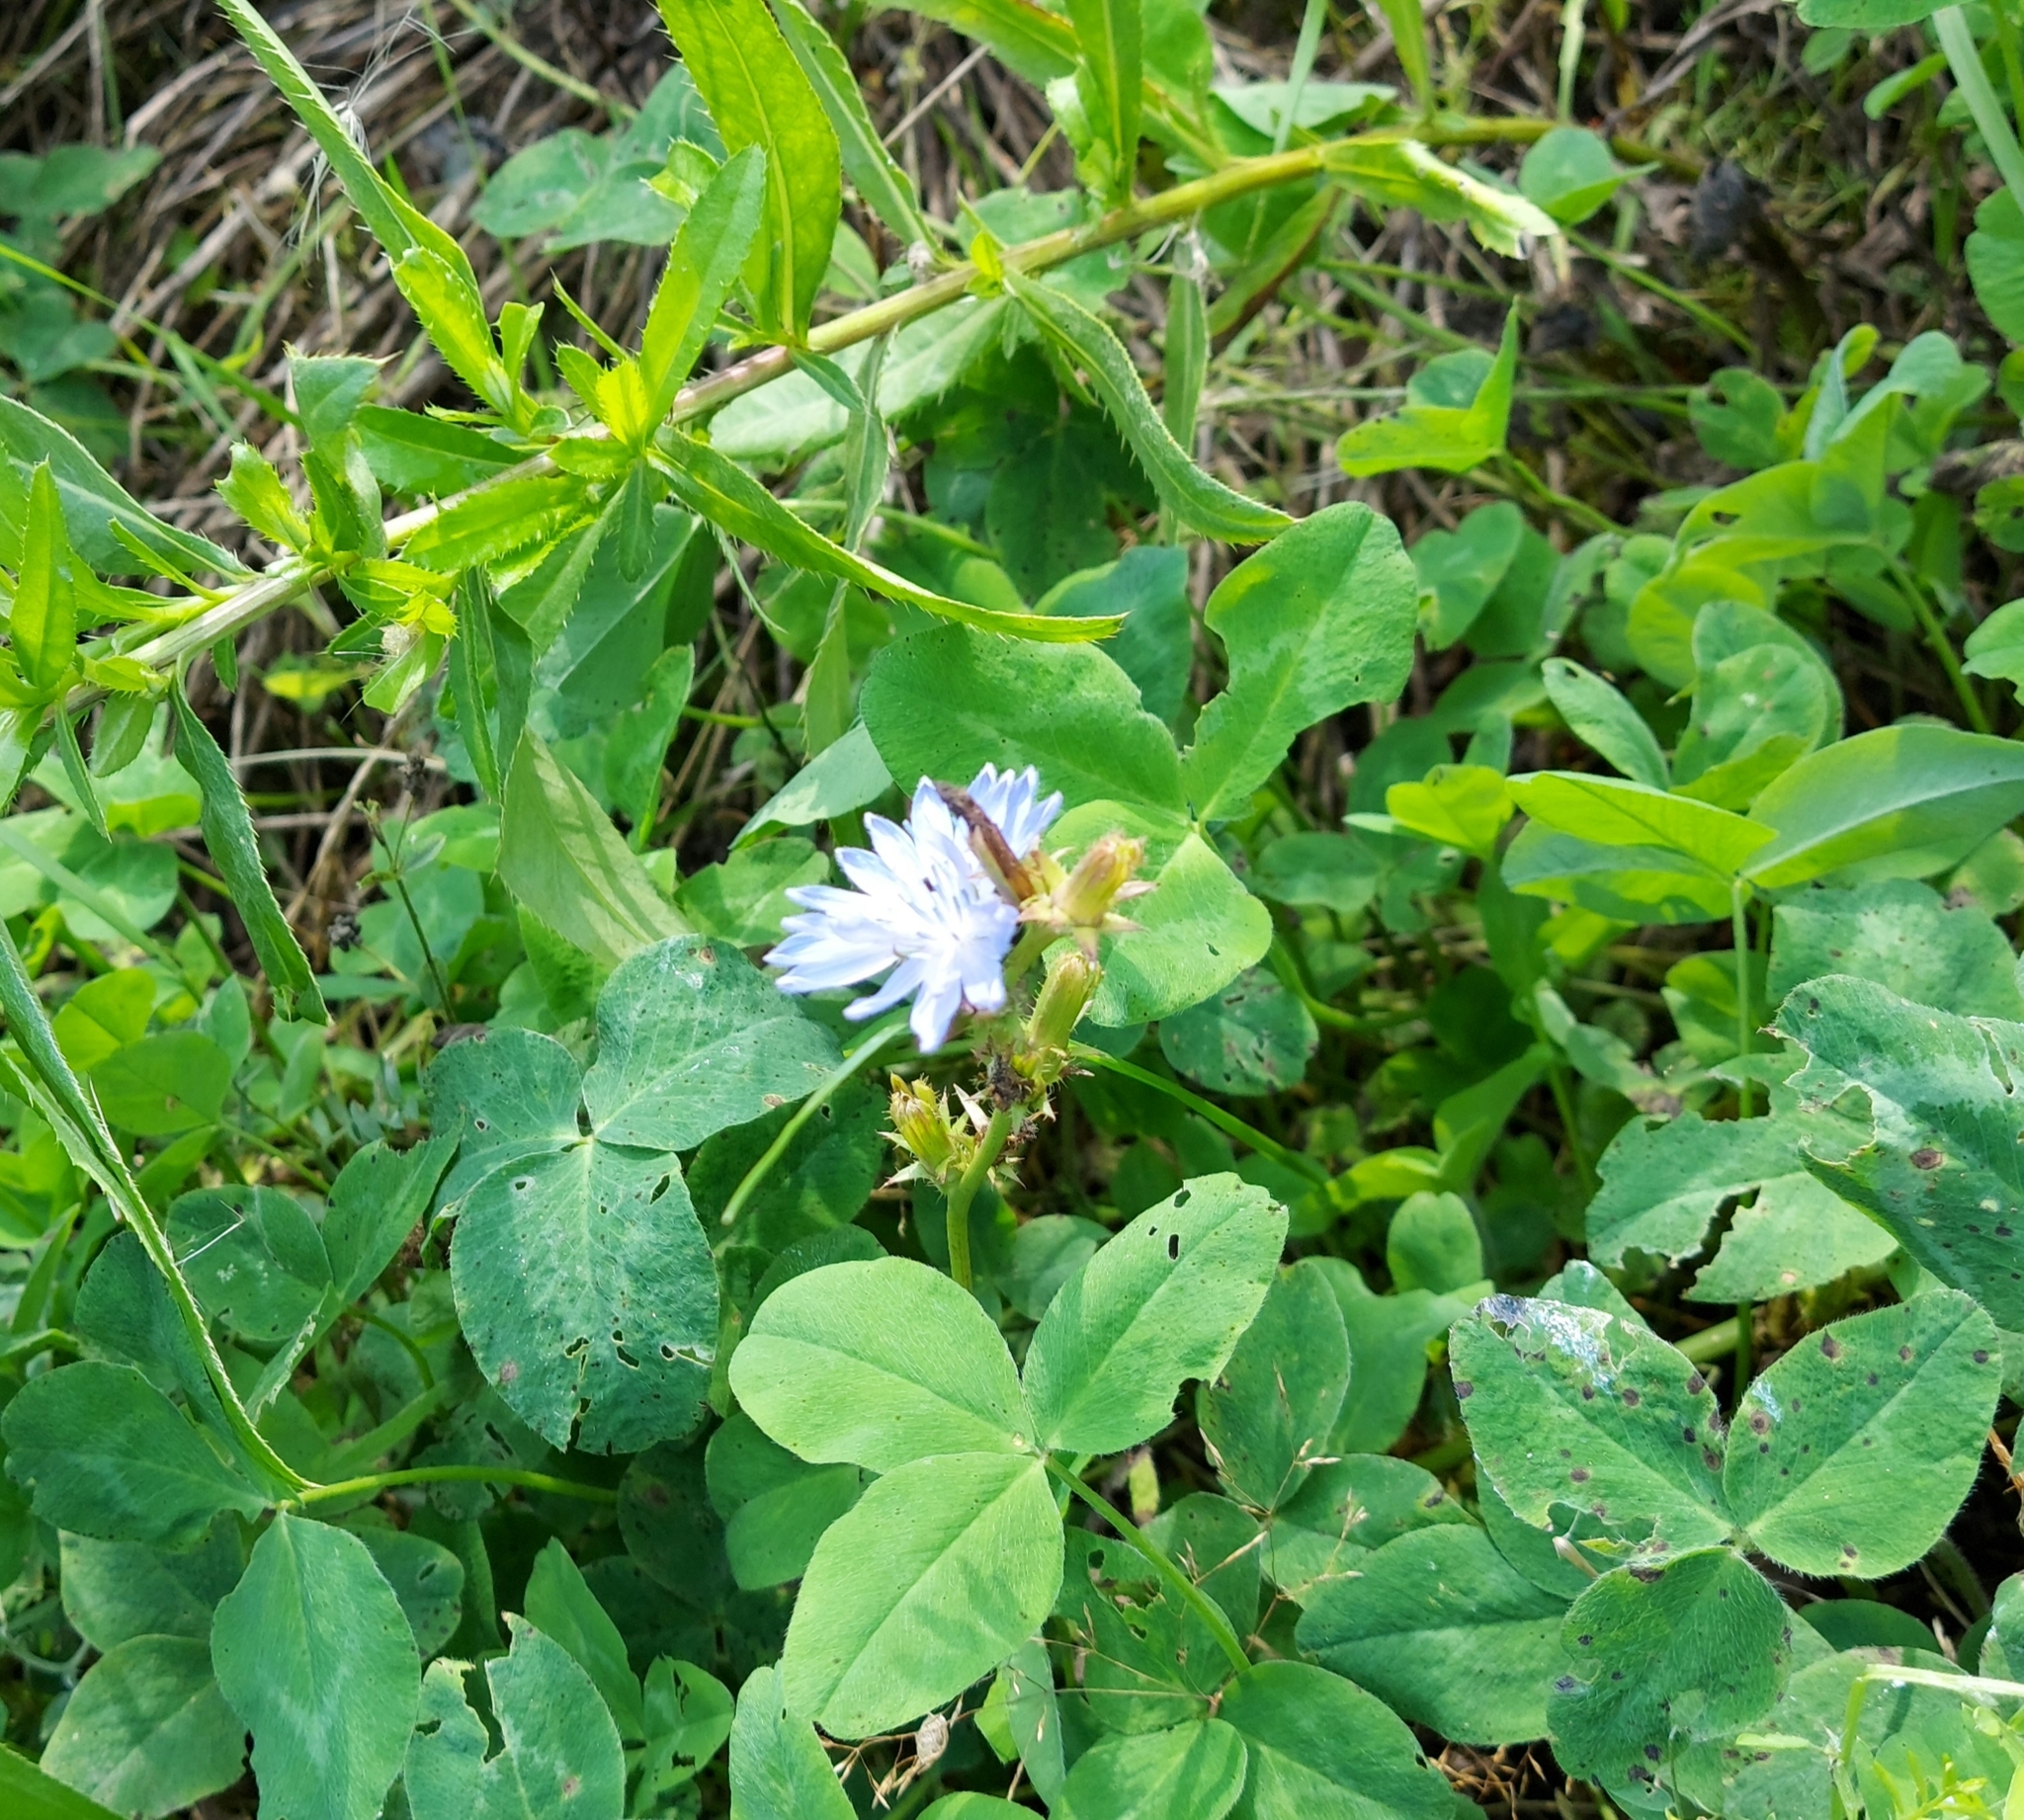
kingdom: Plantae
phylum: Tracheophyta
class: Magnoliopsida
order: Asterales
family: Asteraceae
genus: Cichorium
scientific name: Cichorium intybus
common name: Chicory
